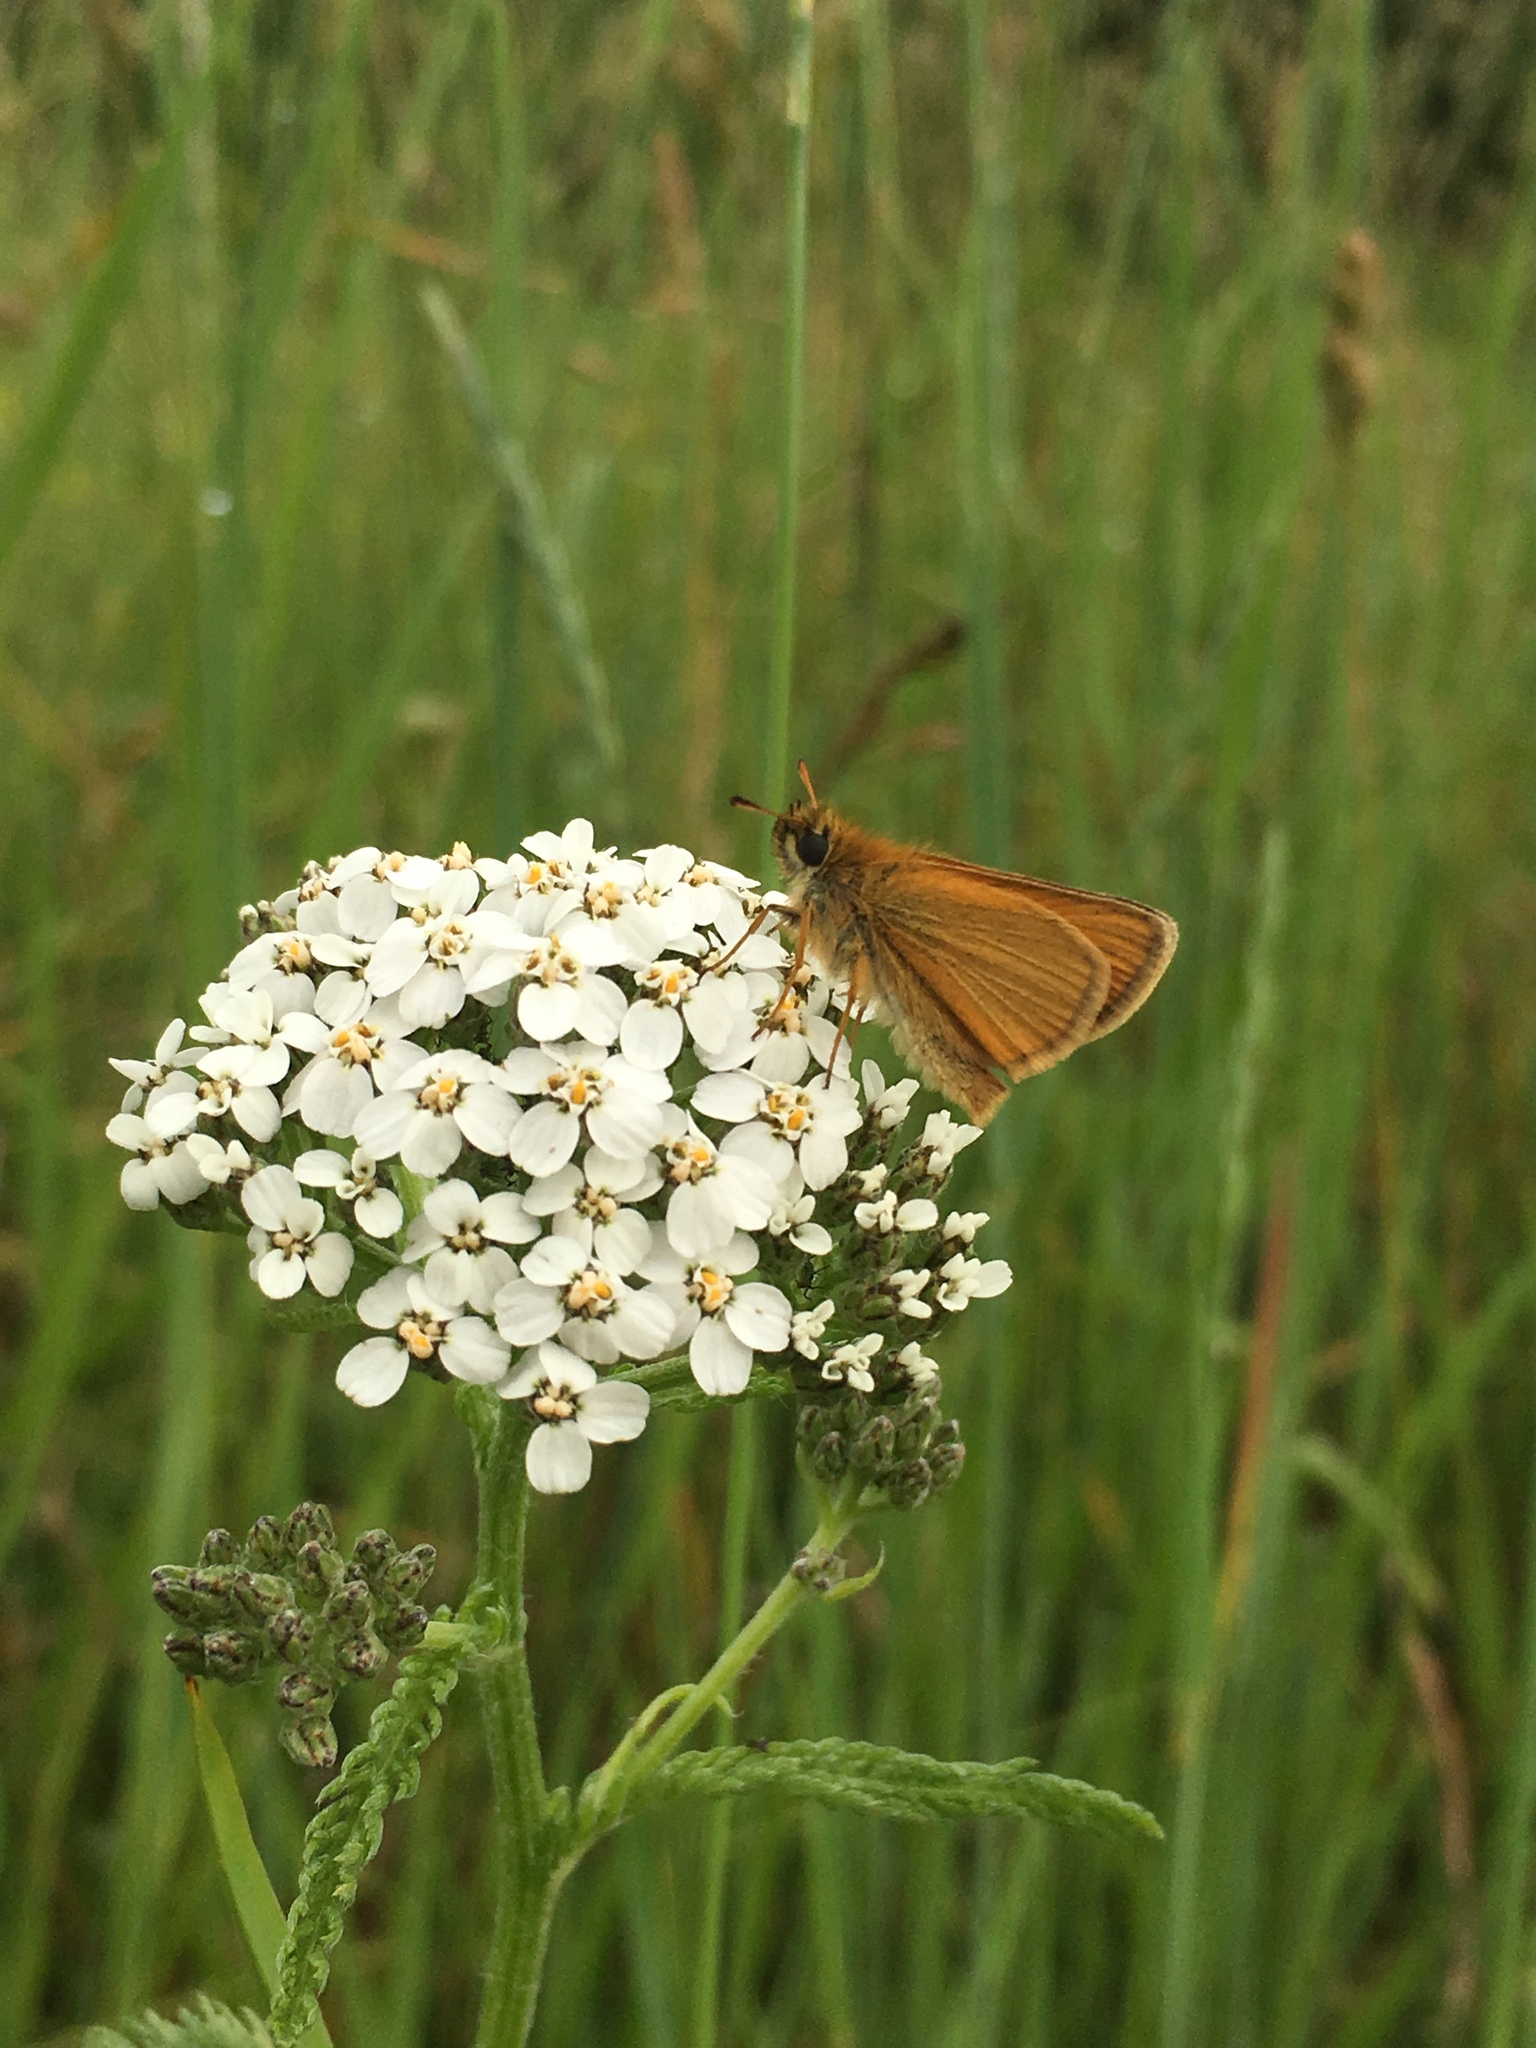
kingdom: Animalia
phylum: Arthropoda
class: Insecta
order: Lepidoptera
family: Hesperiidae
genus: Thymelicus
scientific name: Thymelicus lineola
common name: Essex skipper
